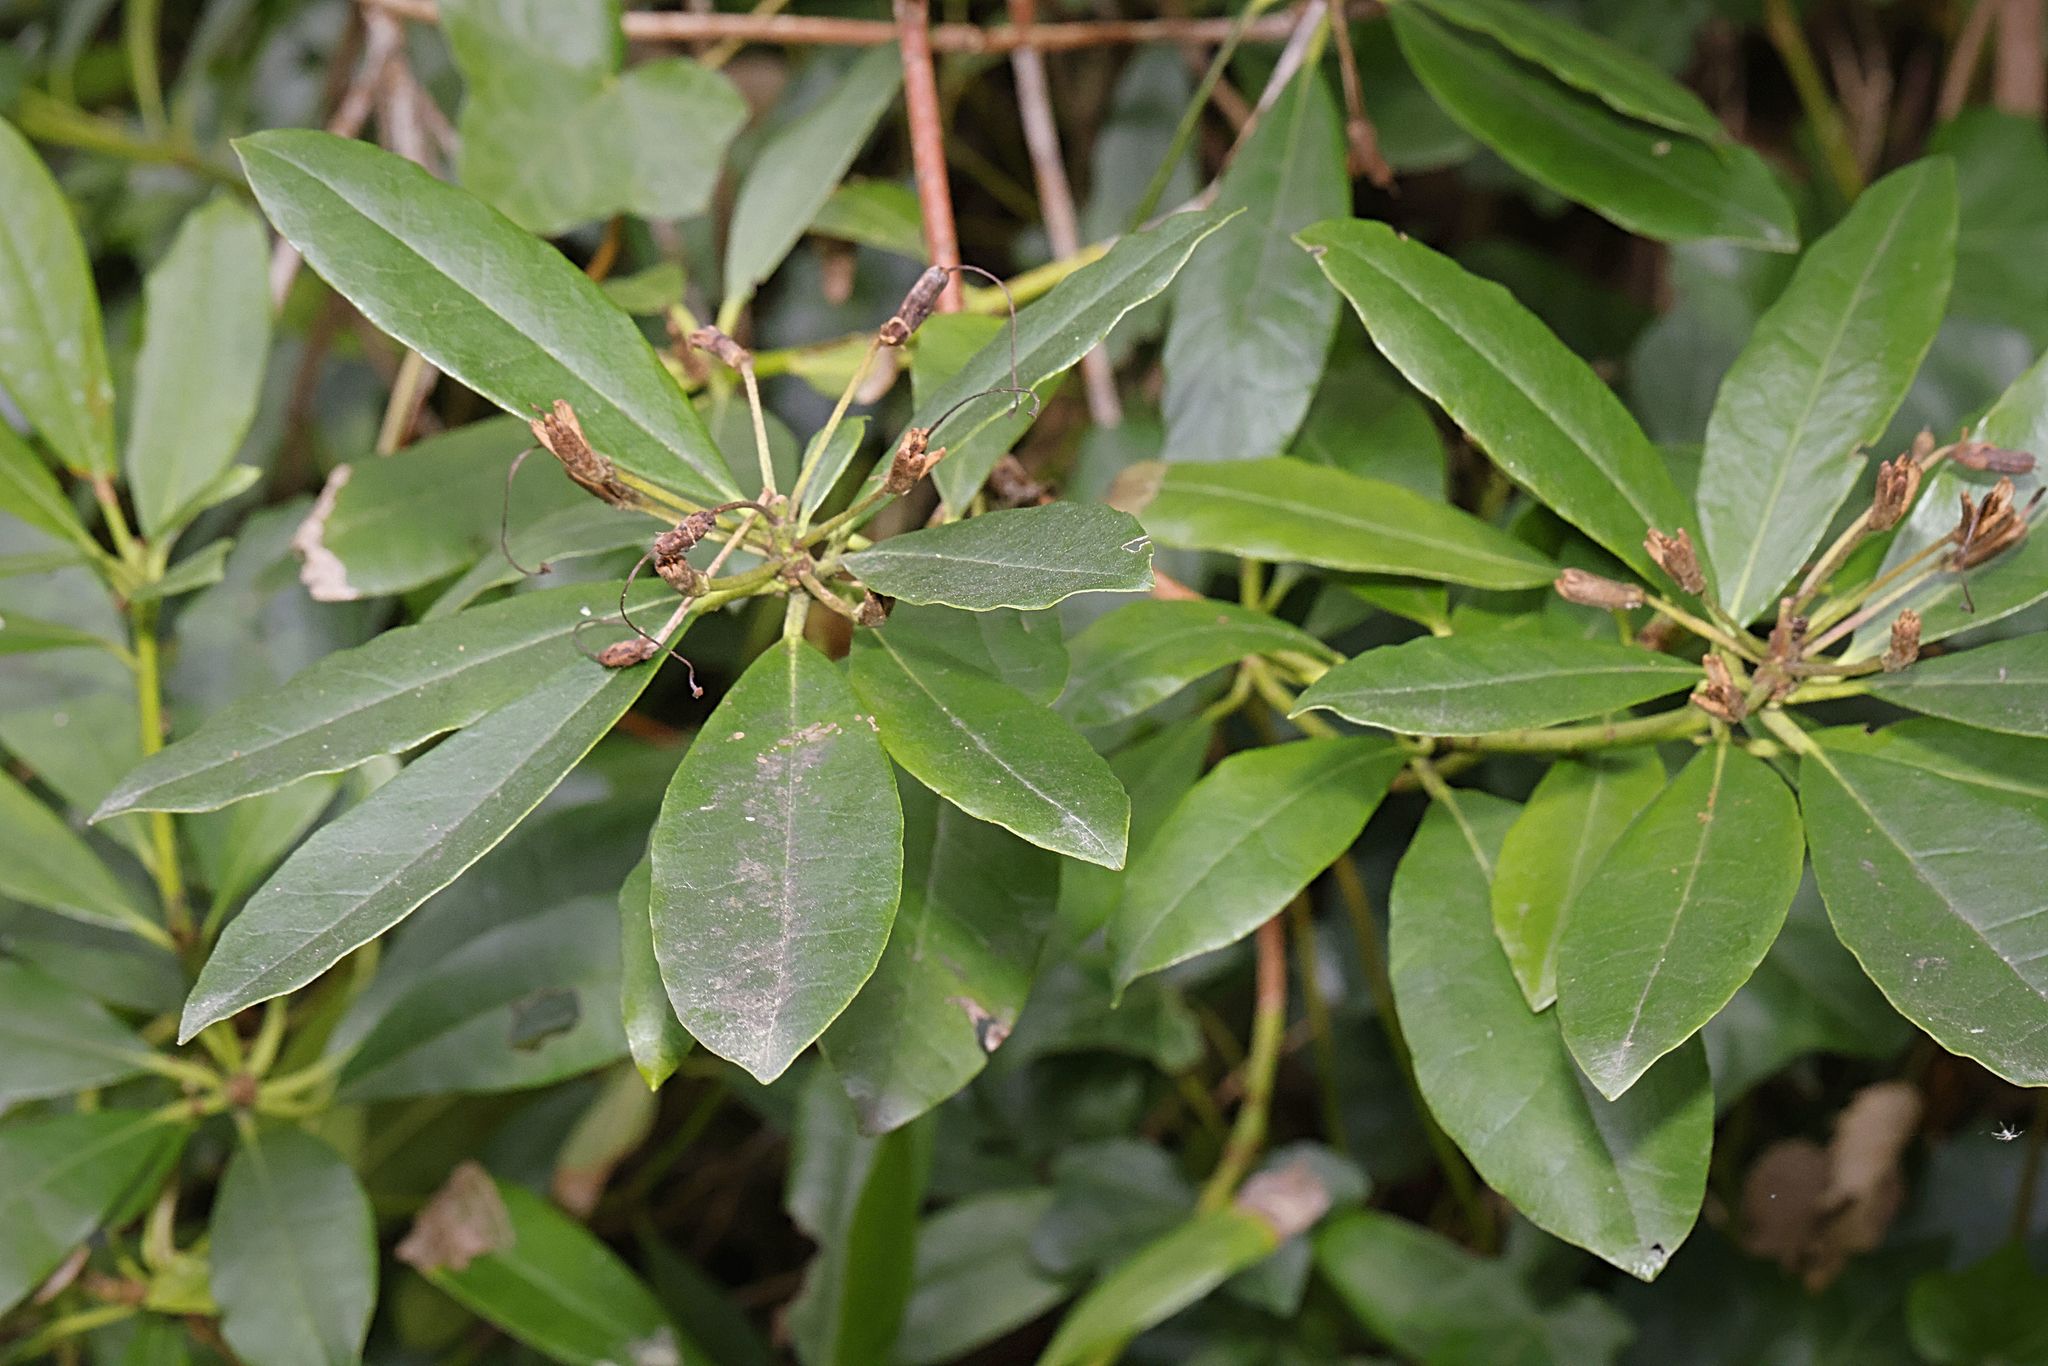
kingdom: Plantae
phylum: Tracheophyta
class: Magnoliopsida
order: Ericales
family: Ericaceae
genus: Rhododendron
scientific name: Rhododendron ponticum
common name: Rhododendron
